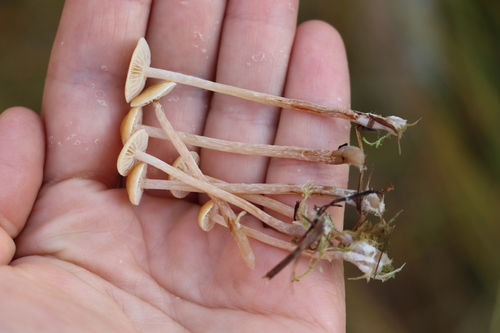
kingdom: Fungi
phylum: Basidiomycota
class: Agaricomycetes
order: Agaricales
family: Strophariaceae
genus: Hypholoma
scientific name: Hypholoma elongatum
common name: Sphagnum brownie
